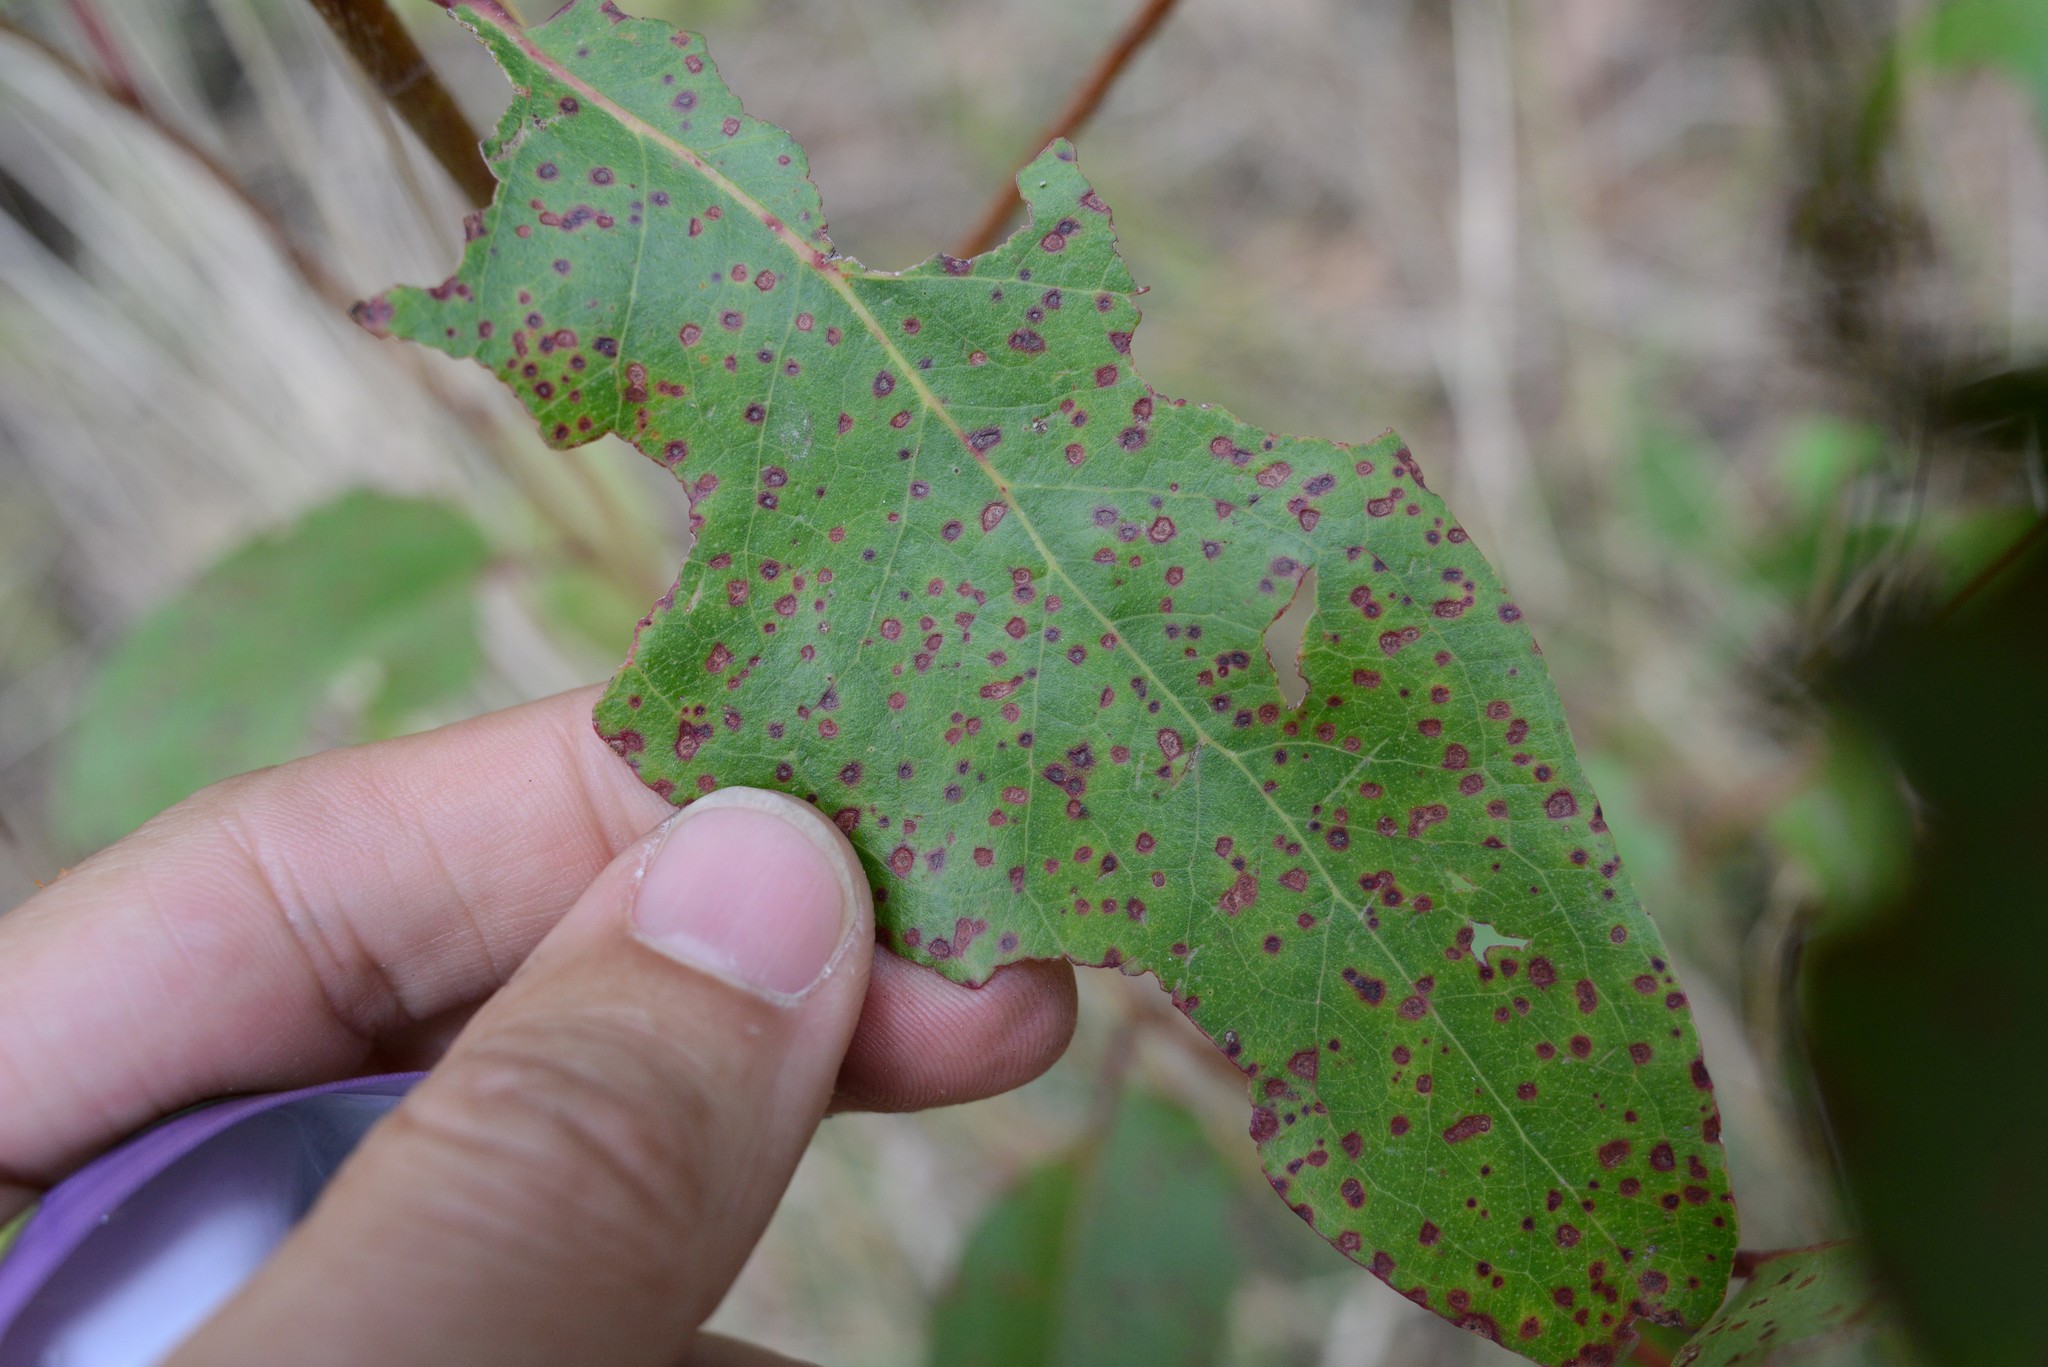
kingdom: Animalia
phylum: Arthropoda
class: Insecta
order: Hymenoptera
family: Eulophidae
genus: Ophelimus
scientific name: Ophelimus eucalypti
